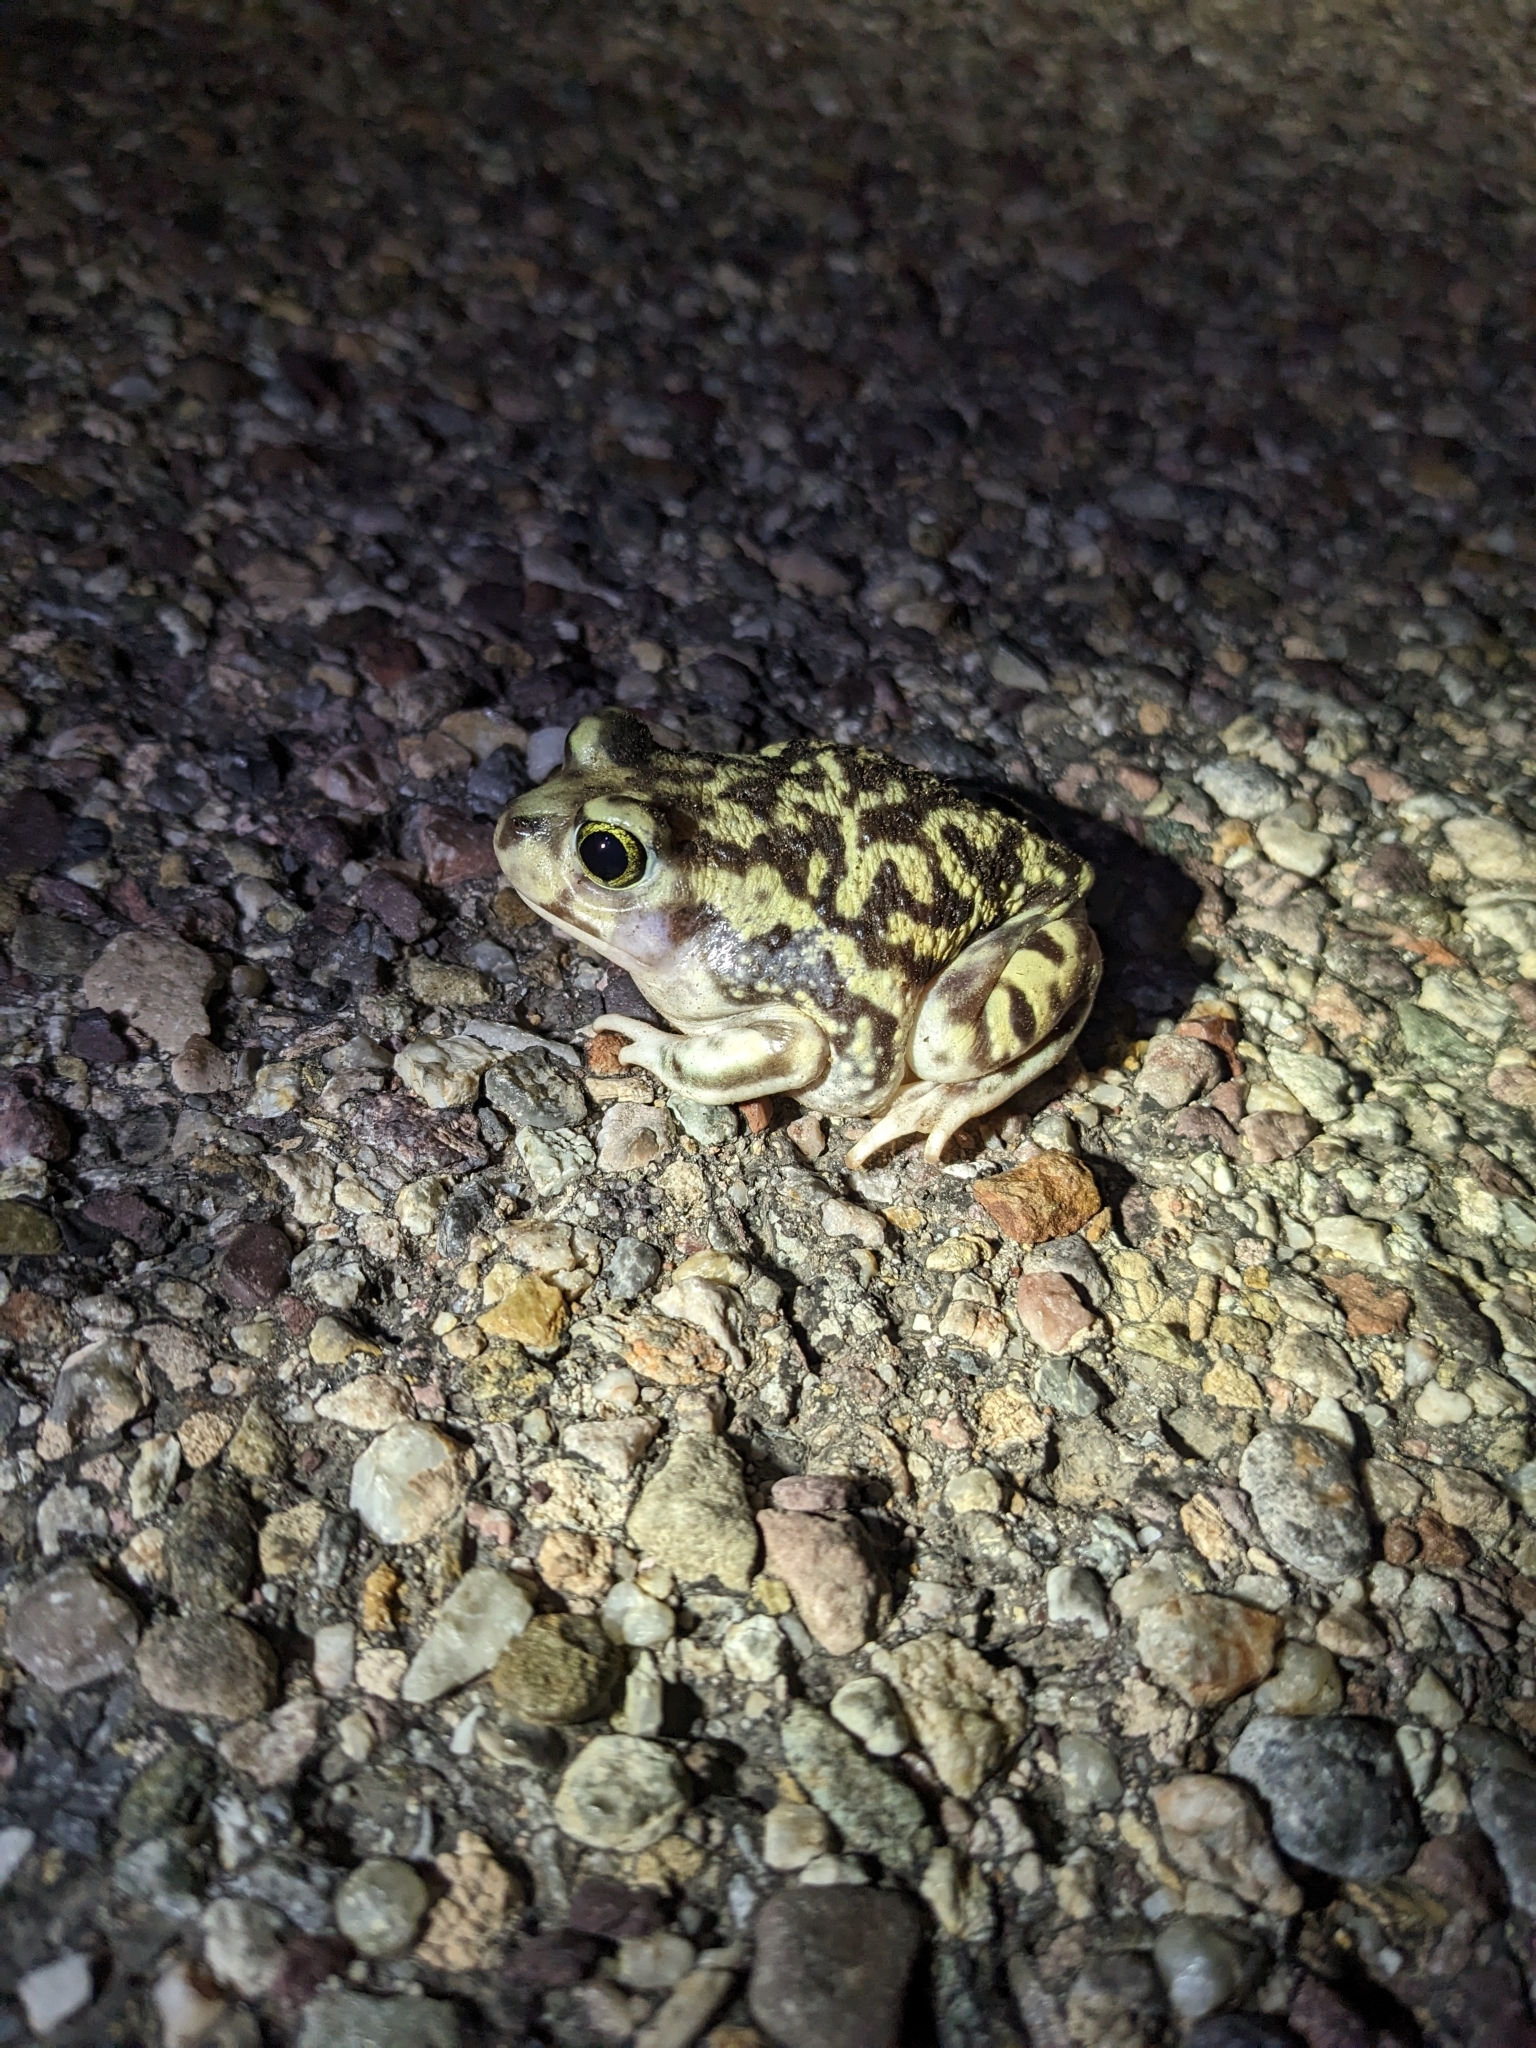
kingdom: Animalia
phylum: Chordata
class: Amphibia
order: Anura
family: Scaphiopodidae
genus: Scaphiopus
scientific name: Scaphiopus couchii
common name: Couch's spadefoot toad
